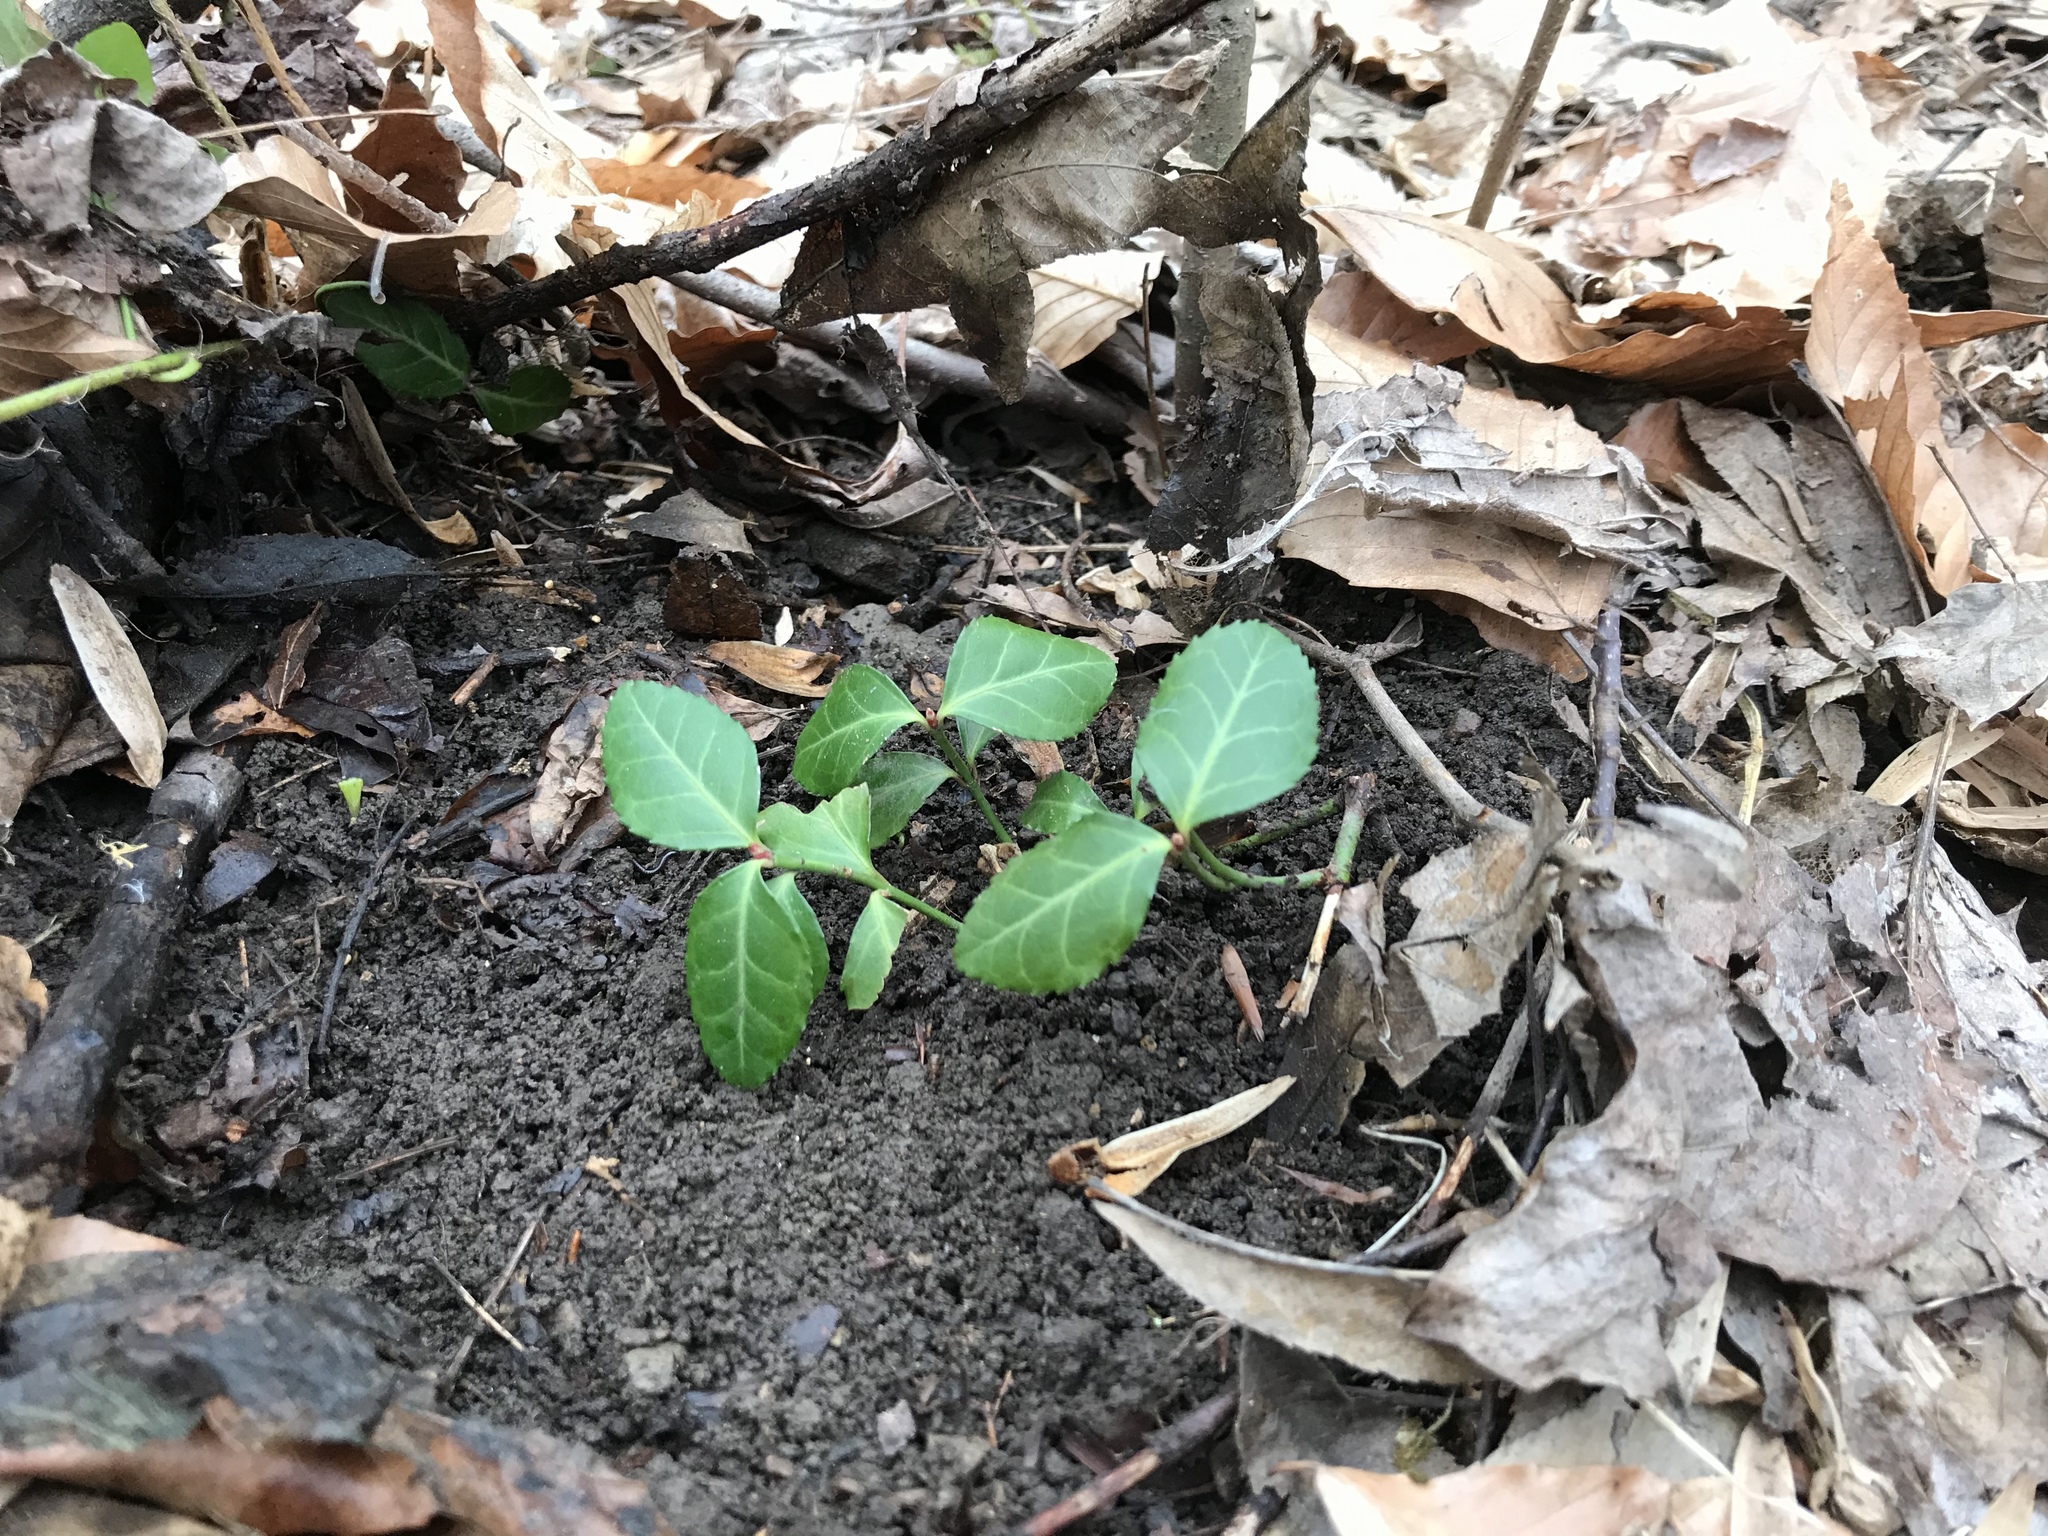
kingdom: Plantae
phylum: Tracheophyta
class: Magnoliopsida
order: Celastrales
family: Celastraceae
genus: Euonymus
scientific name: Euonymus fortunei
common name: Climbing euonymus
